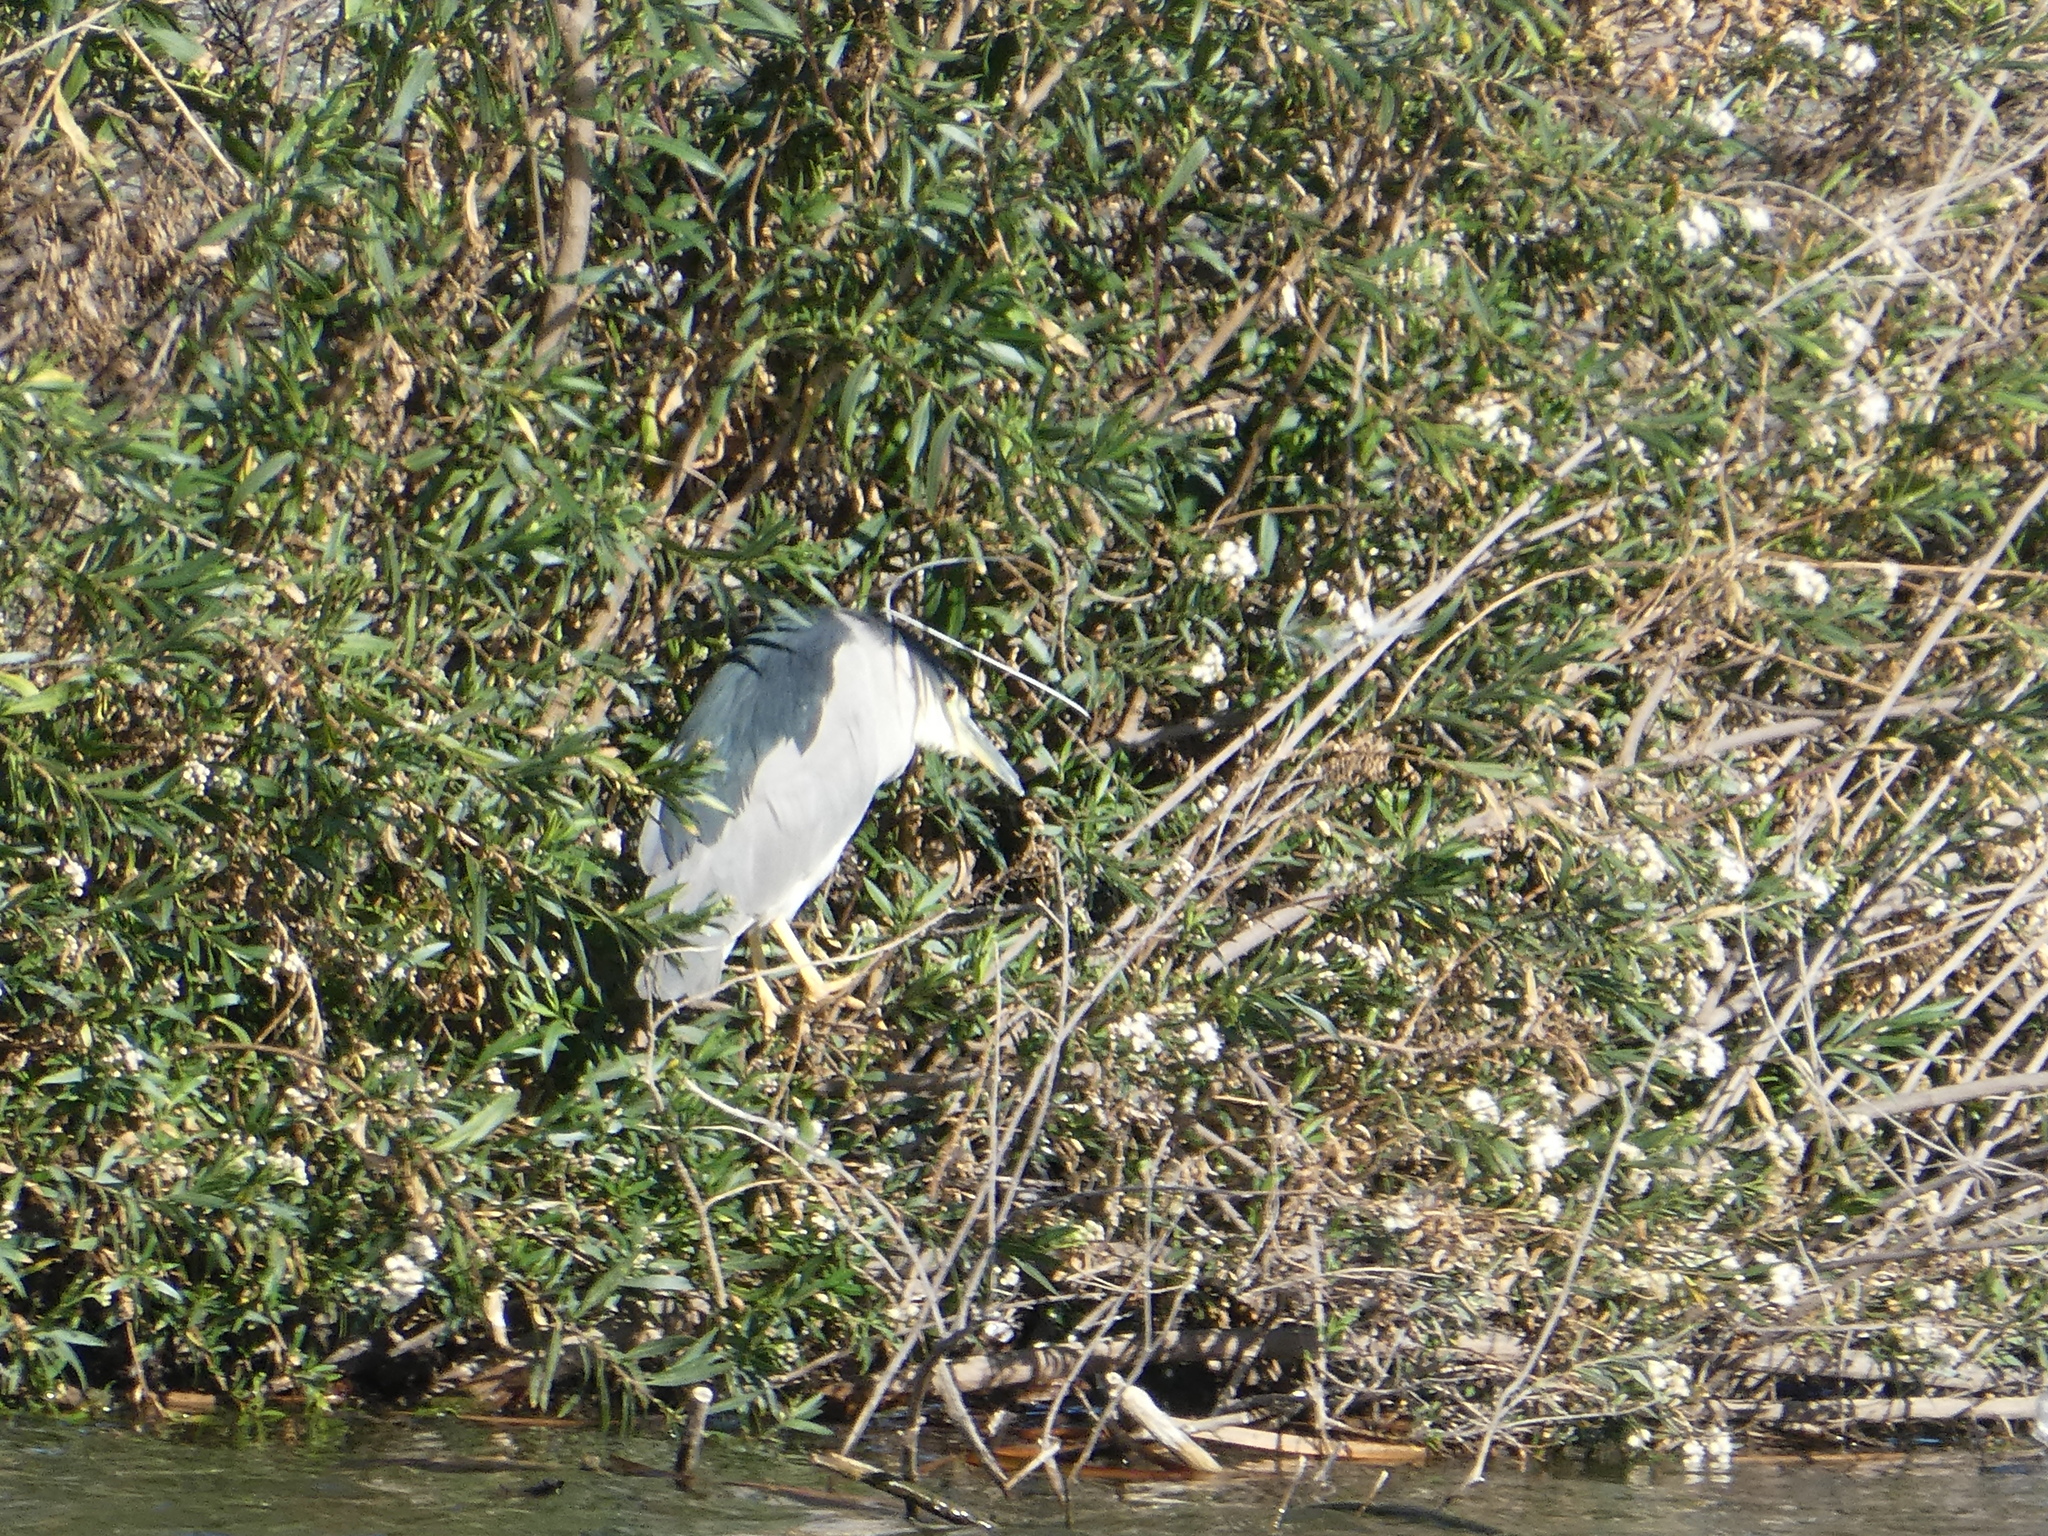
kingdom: Animalia
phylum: Chordata
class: Aves
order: Pelecaniformes
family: Ardeidae
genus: Nycticorax
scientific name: Nycticorax nycticorax
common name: Black-crowned night heron
